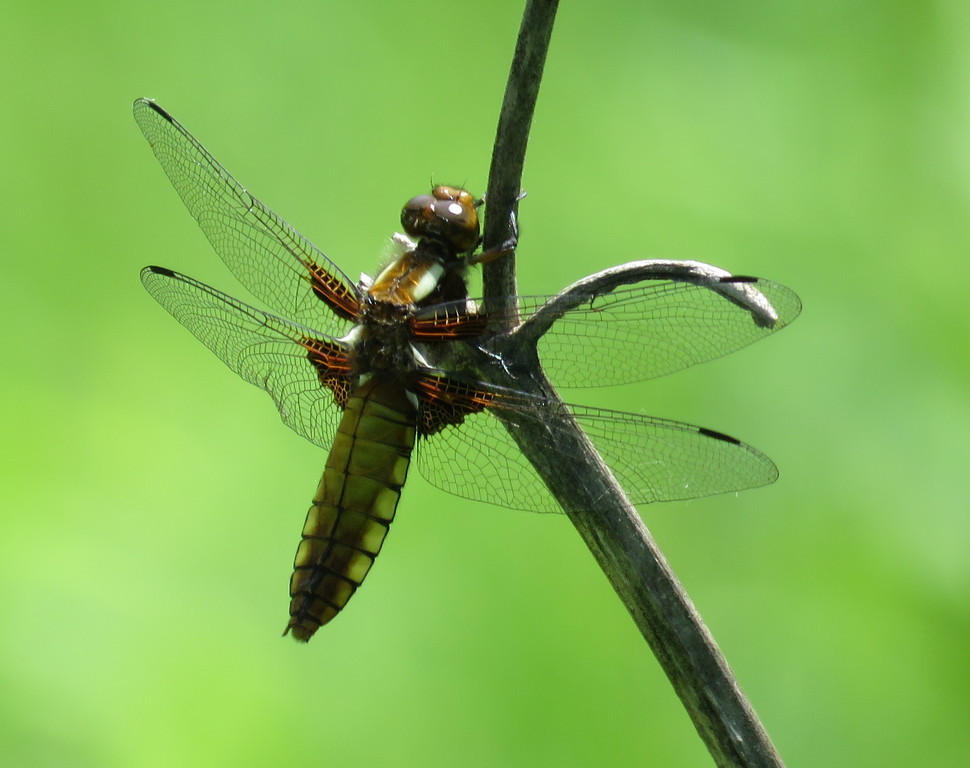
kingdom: Animalia
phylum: Arthropoda
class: Insecta
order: Odonata
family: Libellulidae
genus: Libellula
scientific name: Libellula depressa
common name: Broad-bodied chaser
